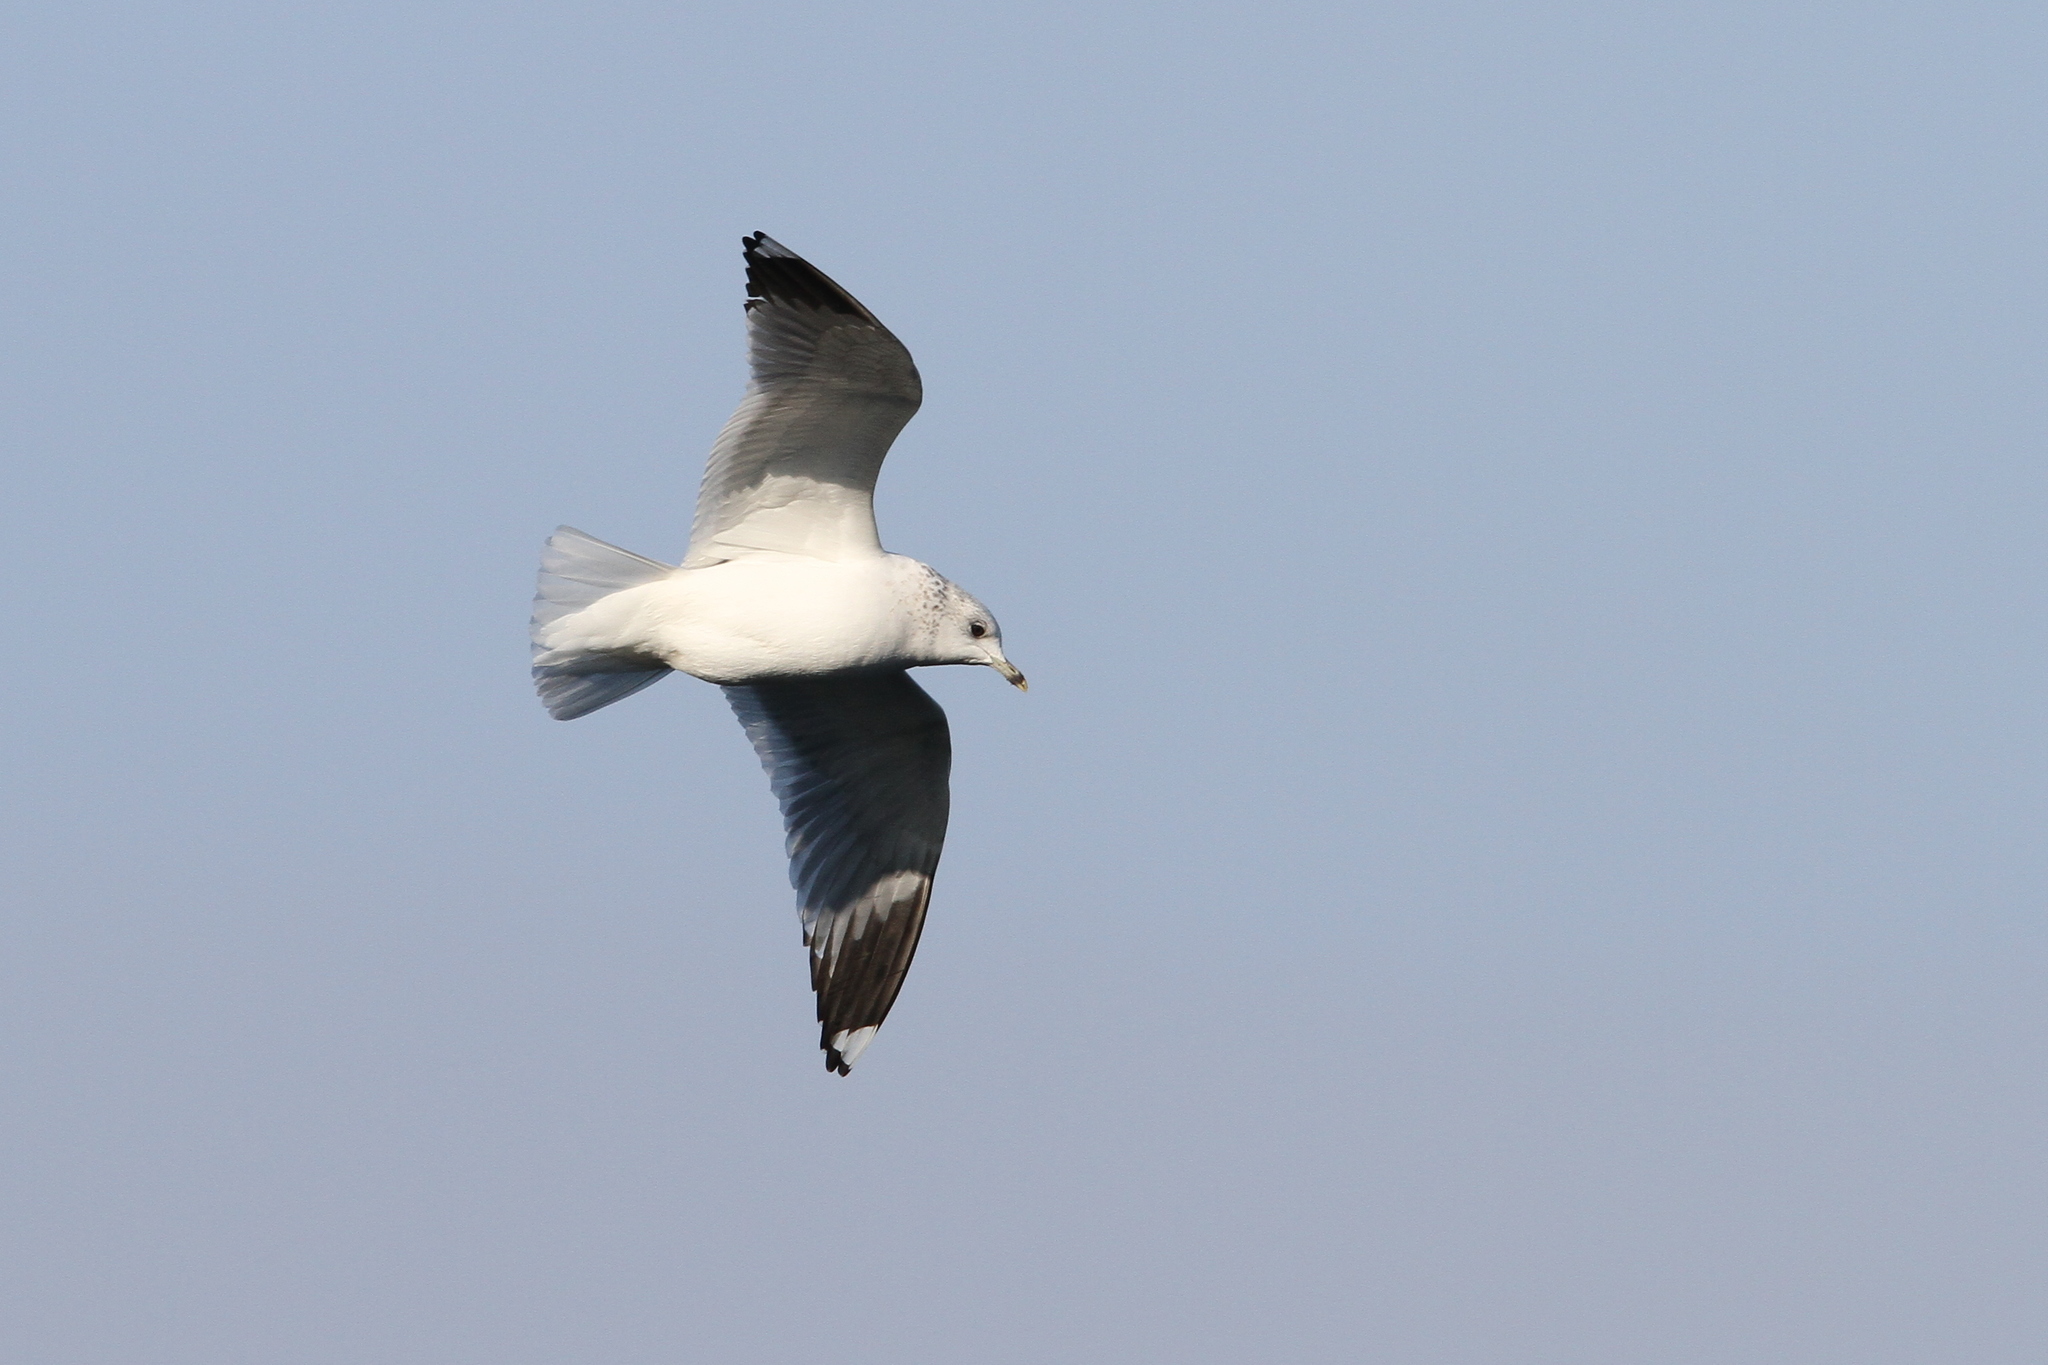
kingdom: Animalia
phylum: Chordata
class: Aves
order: Charadriiformes
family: Laridae
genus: Larus
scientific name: Larus canus
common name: Mew gull
